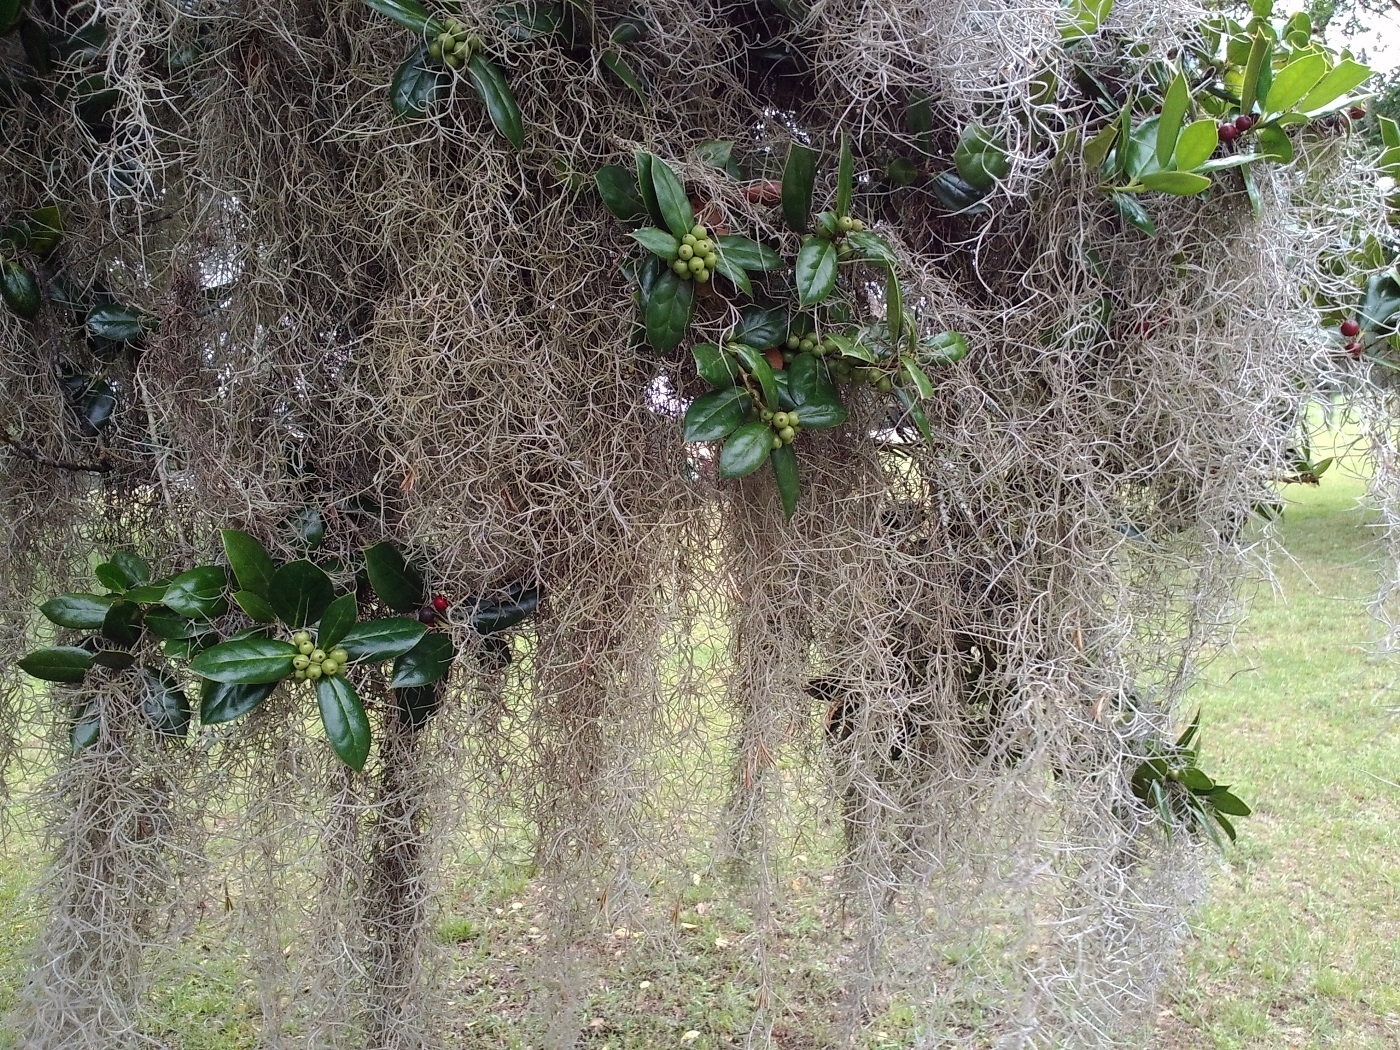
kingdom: Plantae
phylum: Tracheophyta
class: Liliopsida
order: Poales
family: Bromeliaceae
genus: Tillandsia
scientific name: Tillandsia usneoides
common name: Spanish moss
